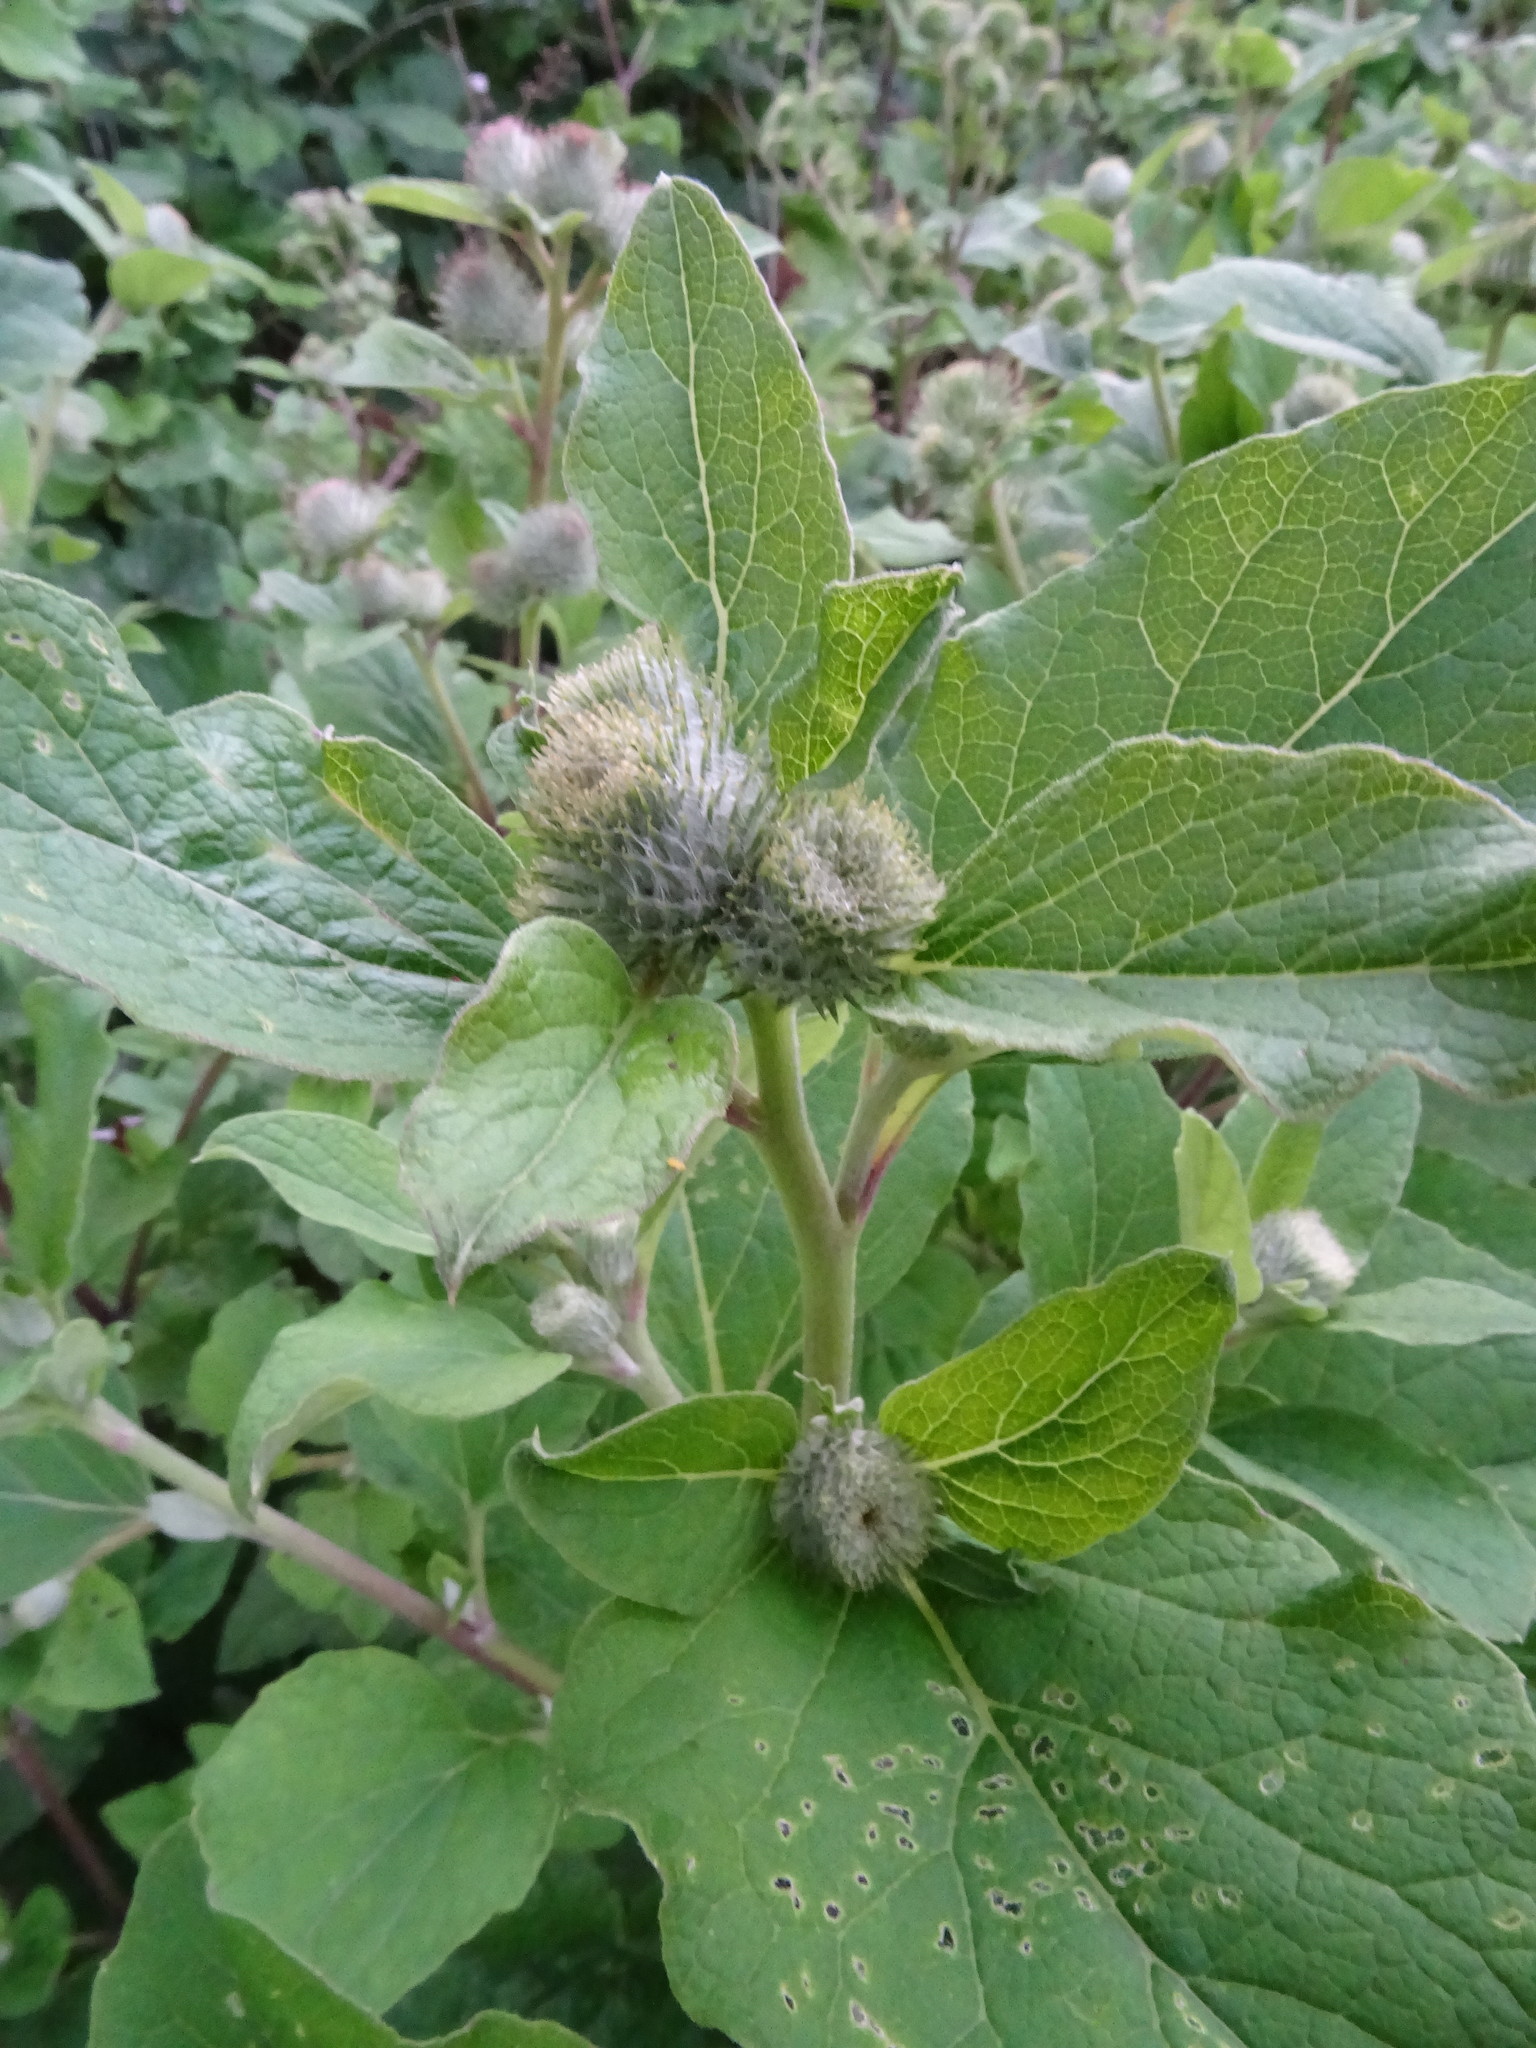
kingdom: Plantae
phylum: Tracheophyta
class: Magnoliopsida
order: Asterales
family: Asteraceae
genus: Arctium
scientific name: Arctium minus
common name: Lesser burdock
